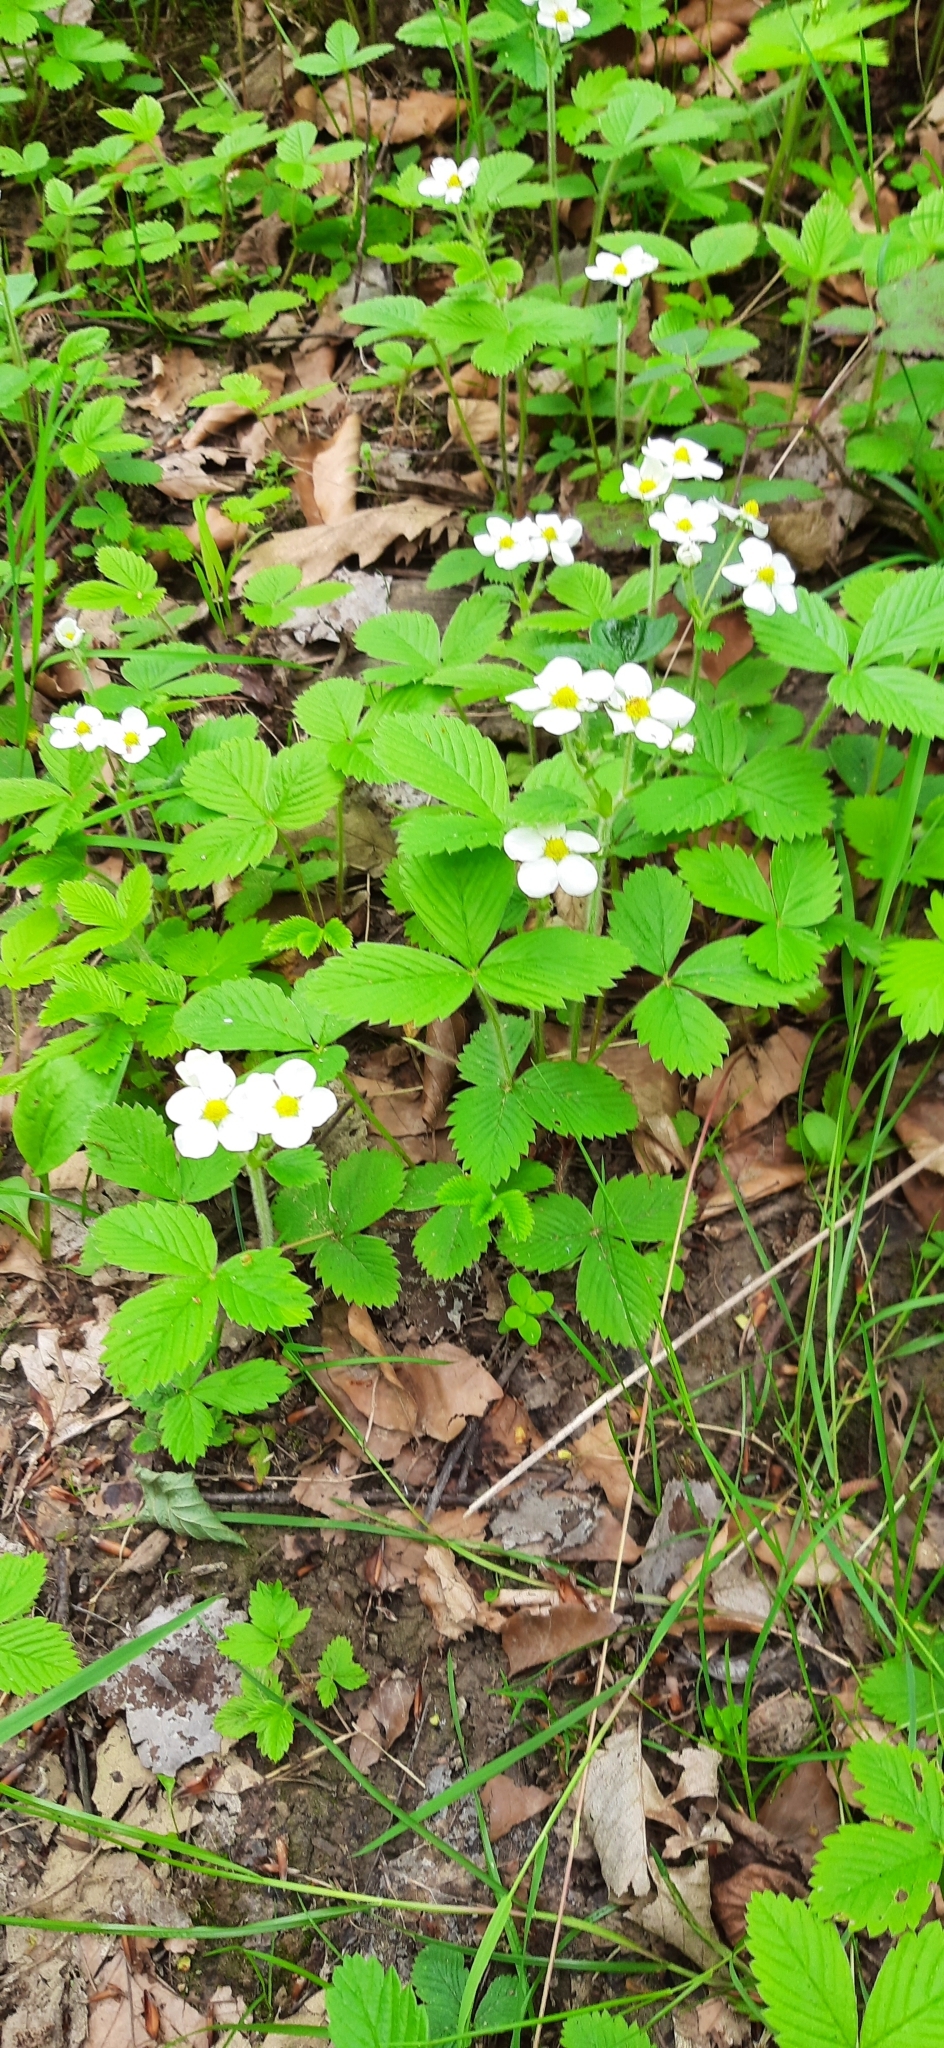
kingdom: Plantae
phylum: Tracheophyta
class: Magnoliopsida
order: Rosales
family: Rosaceae
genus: Fragaria
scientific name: Fragaria vesca
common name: Wild strawberry
